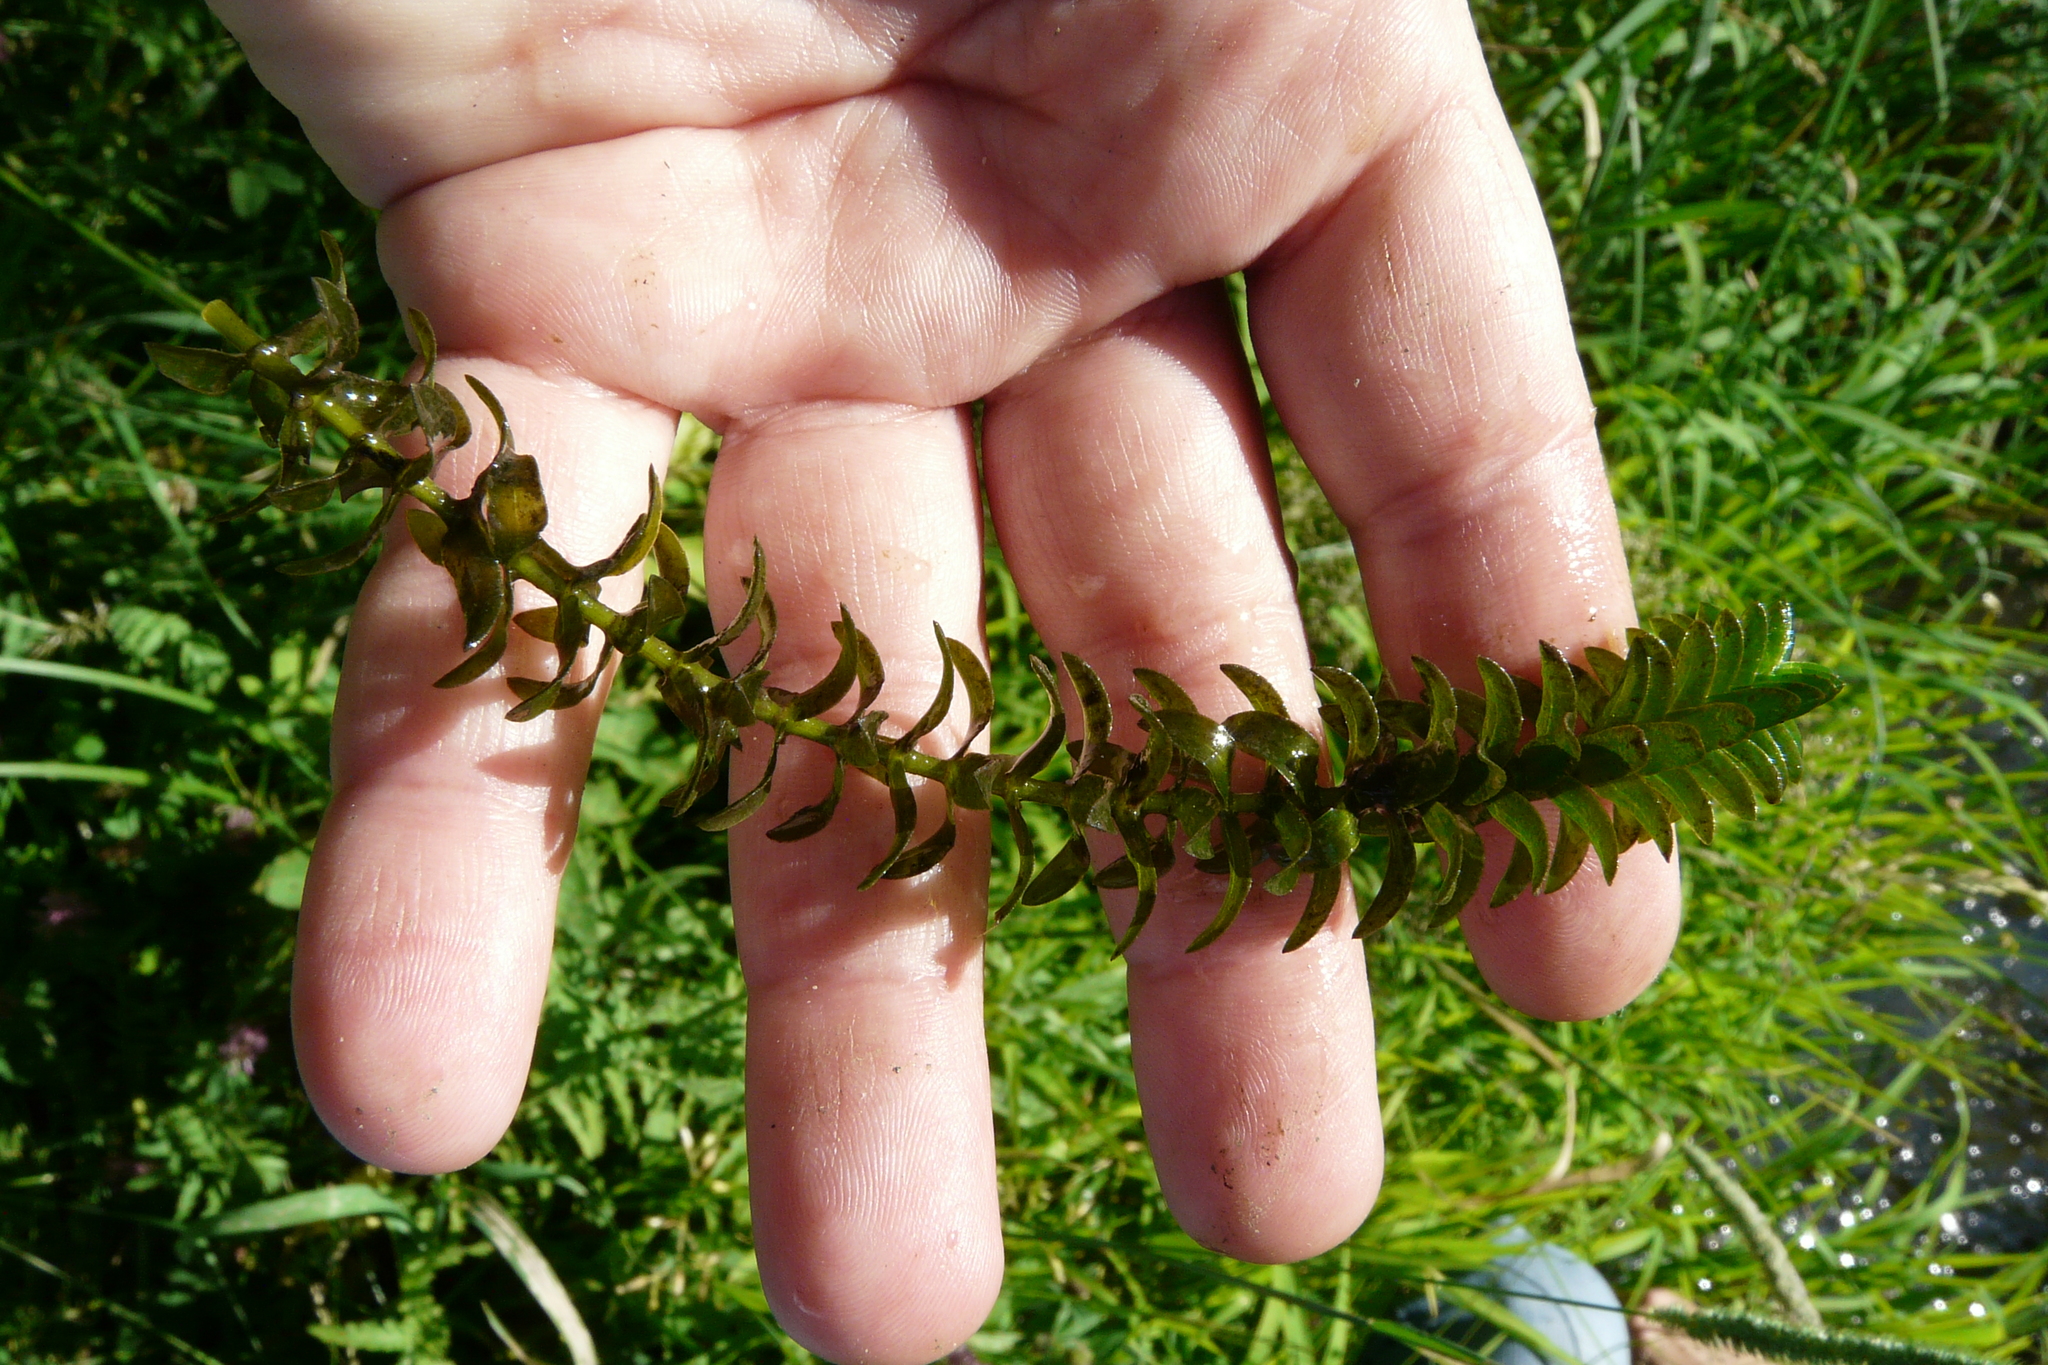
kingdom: Plantae
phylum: Tracheophyta
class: Liliopsida
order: Alismatales
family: Hydrocharitaceae
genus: Elodea
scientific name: Elodea canadensis
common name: Canadian waterweed
